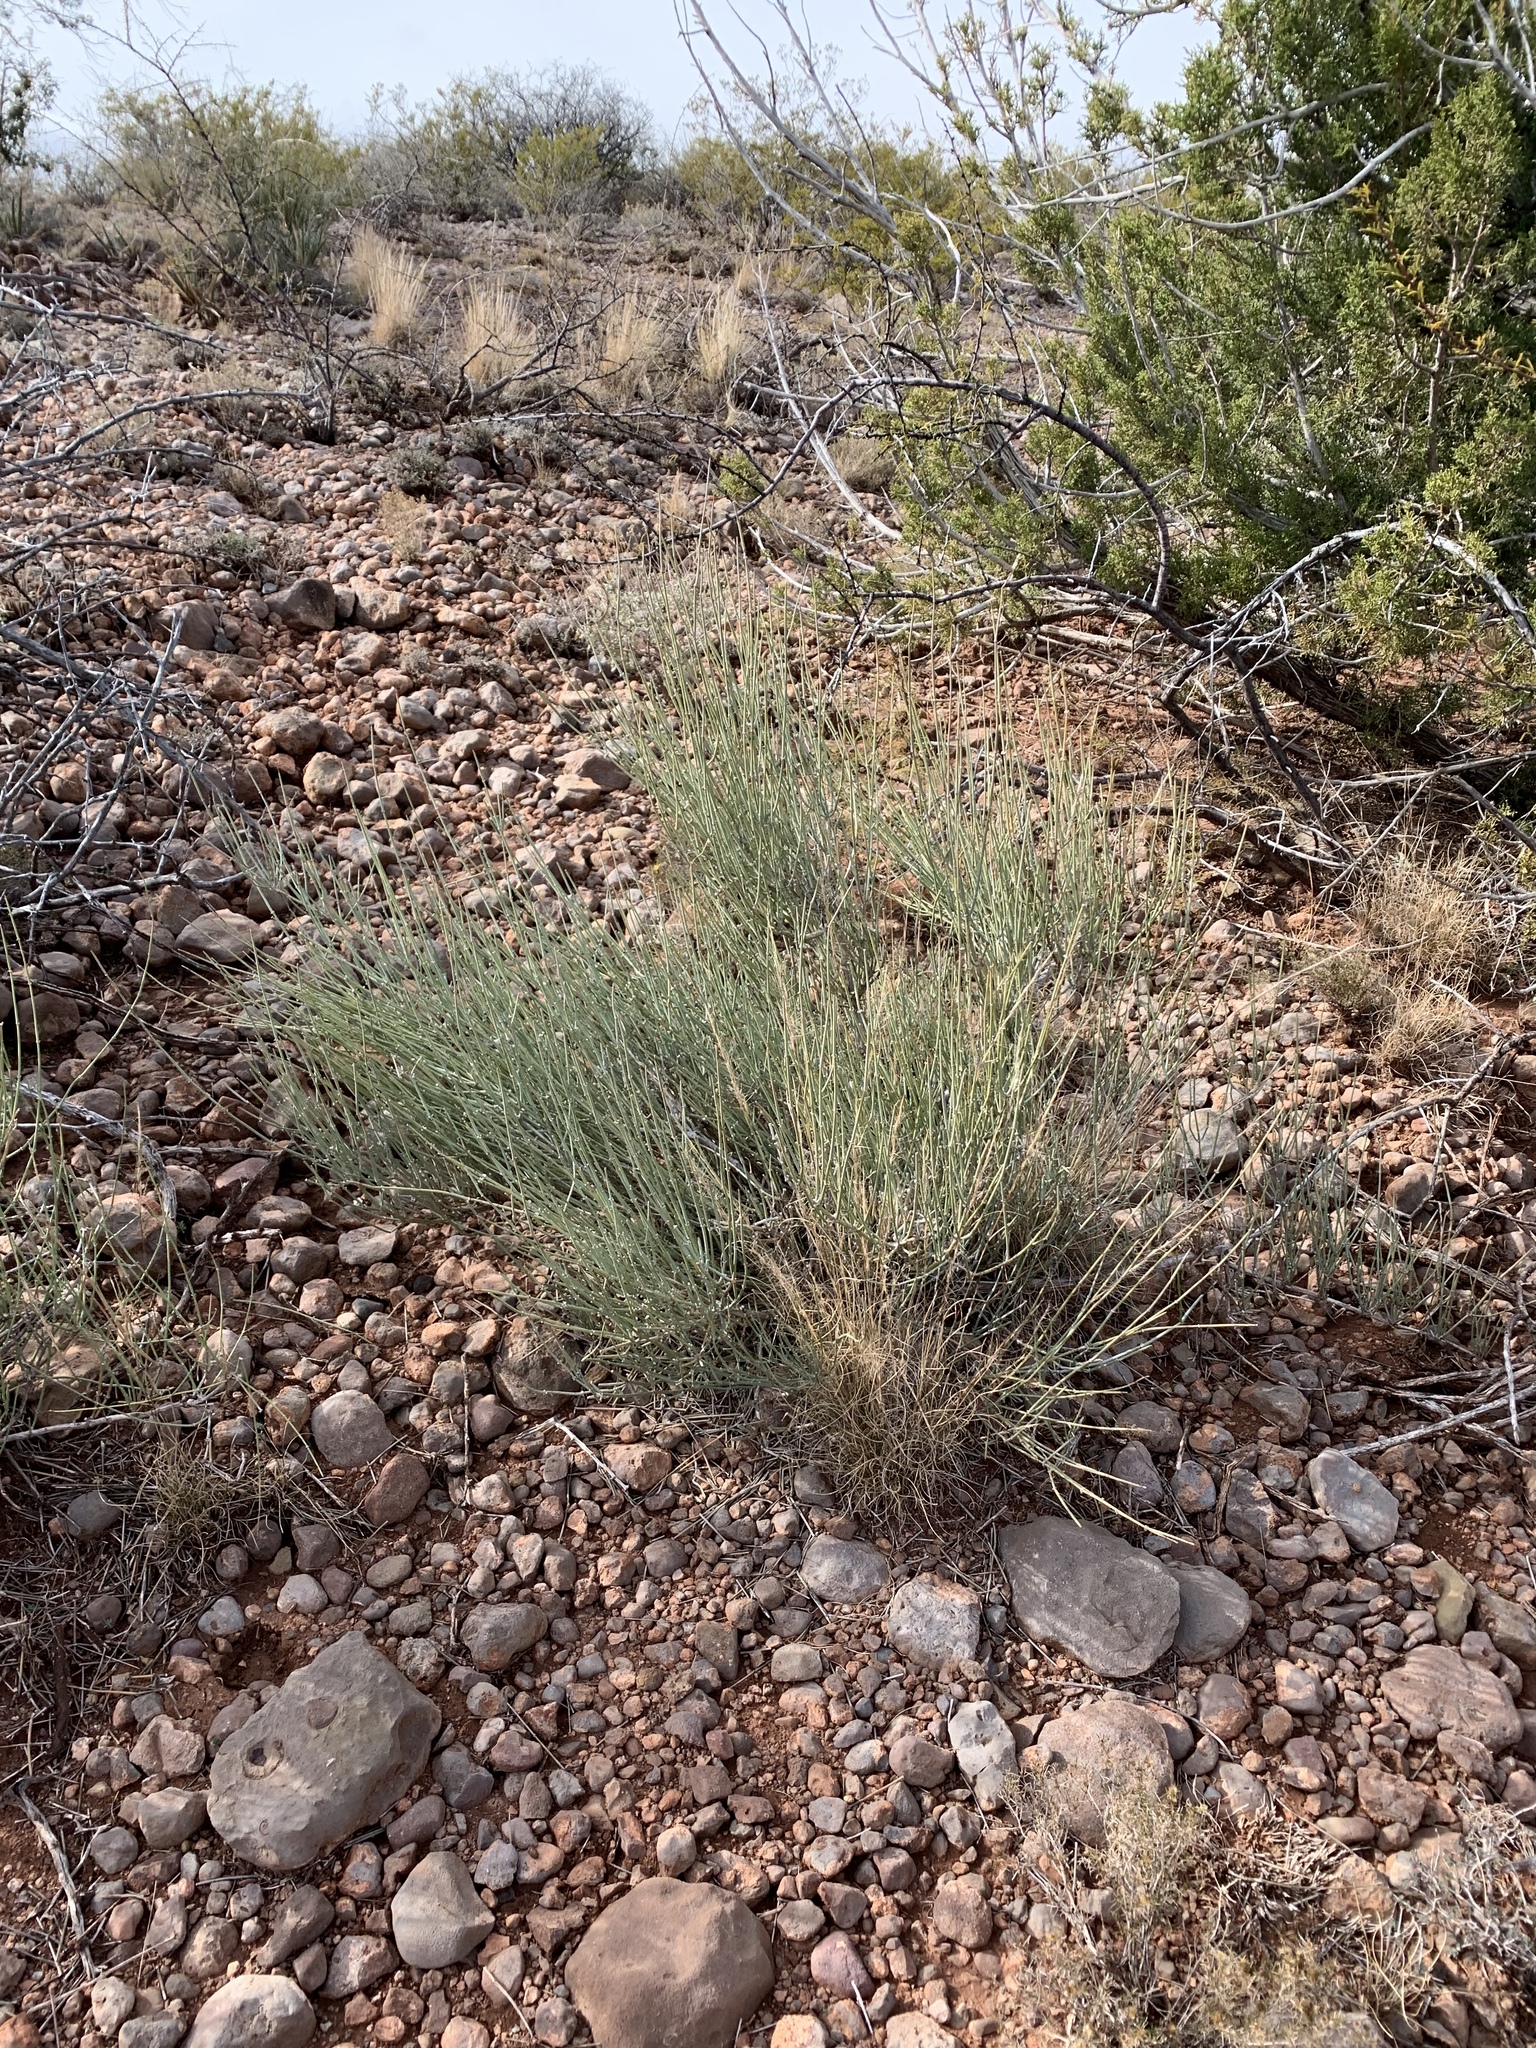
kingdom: Plantae
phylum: Tracheophyta
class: Gnetopsida
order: Ephedrales
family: Ephedraceae
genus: Ephedra
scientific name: Ephedra trifurca
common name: Mexican-tea
